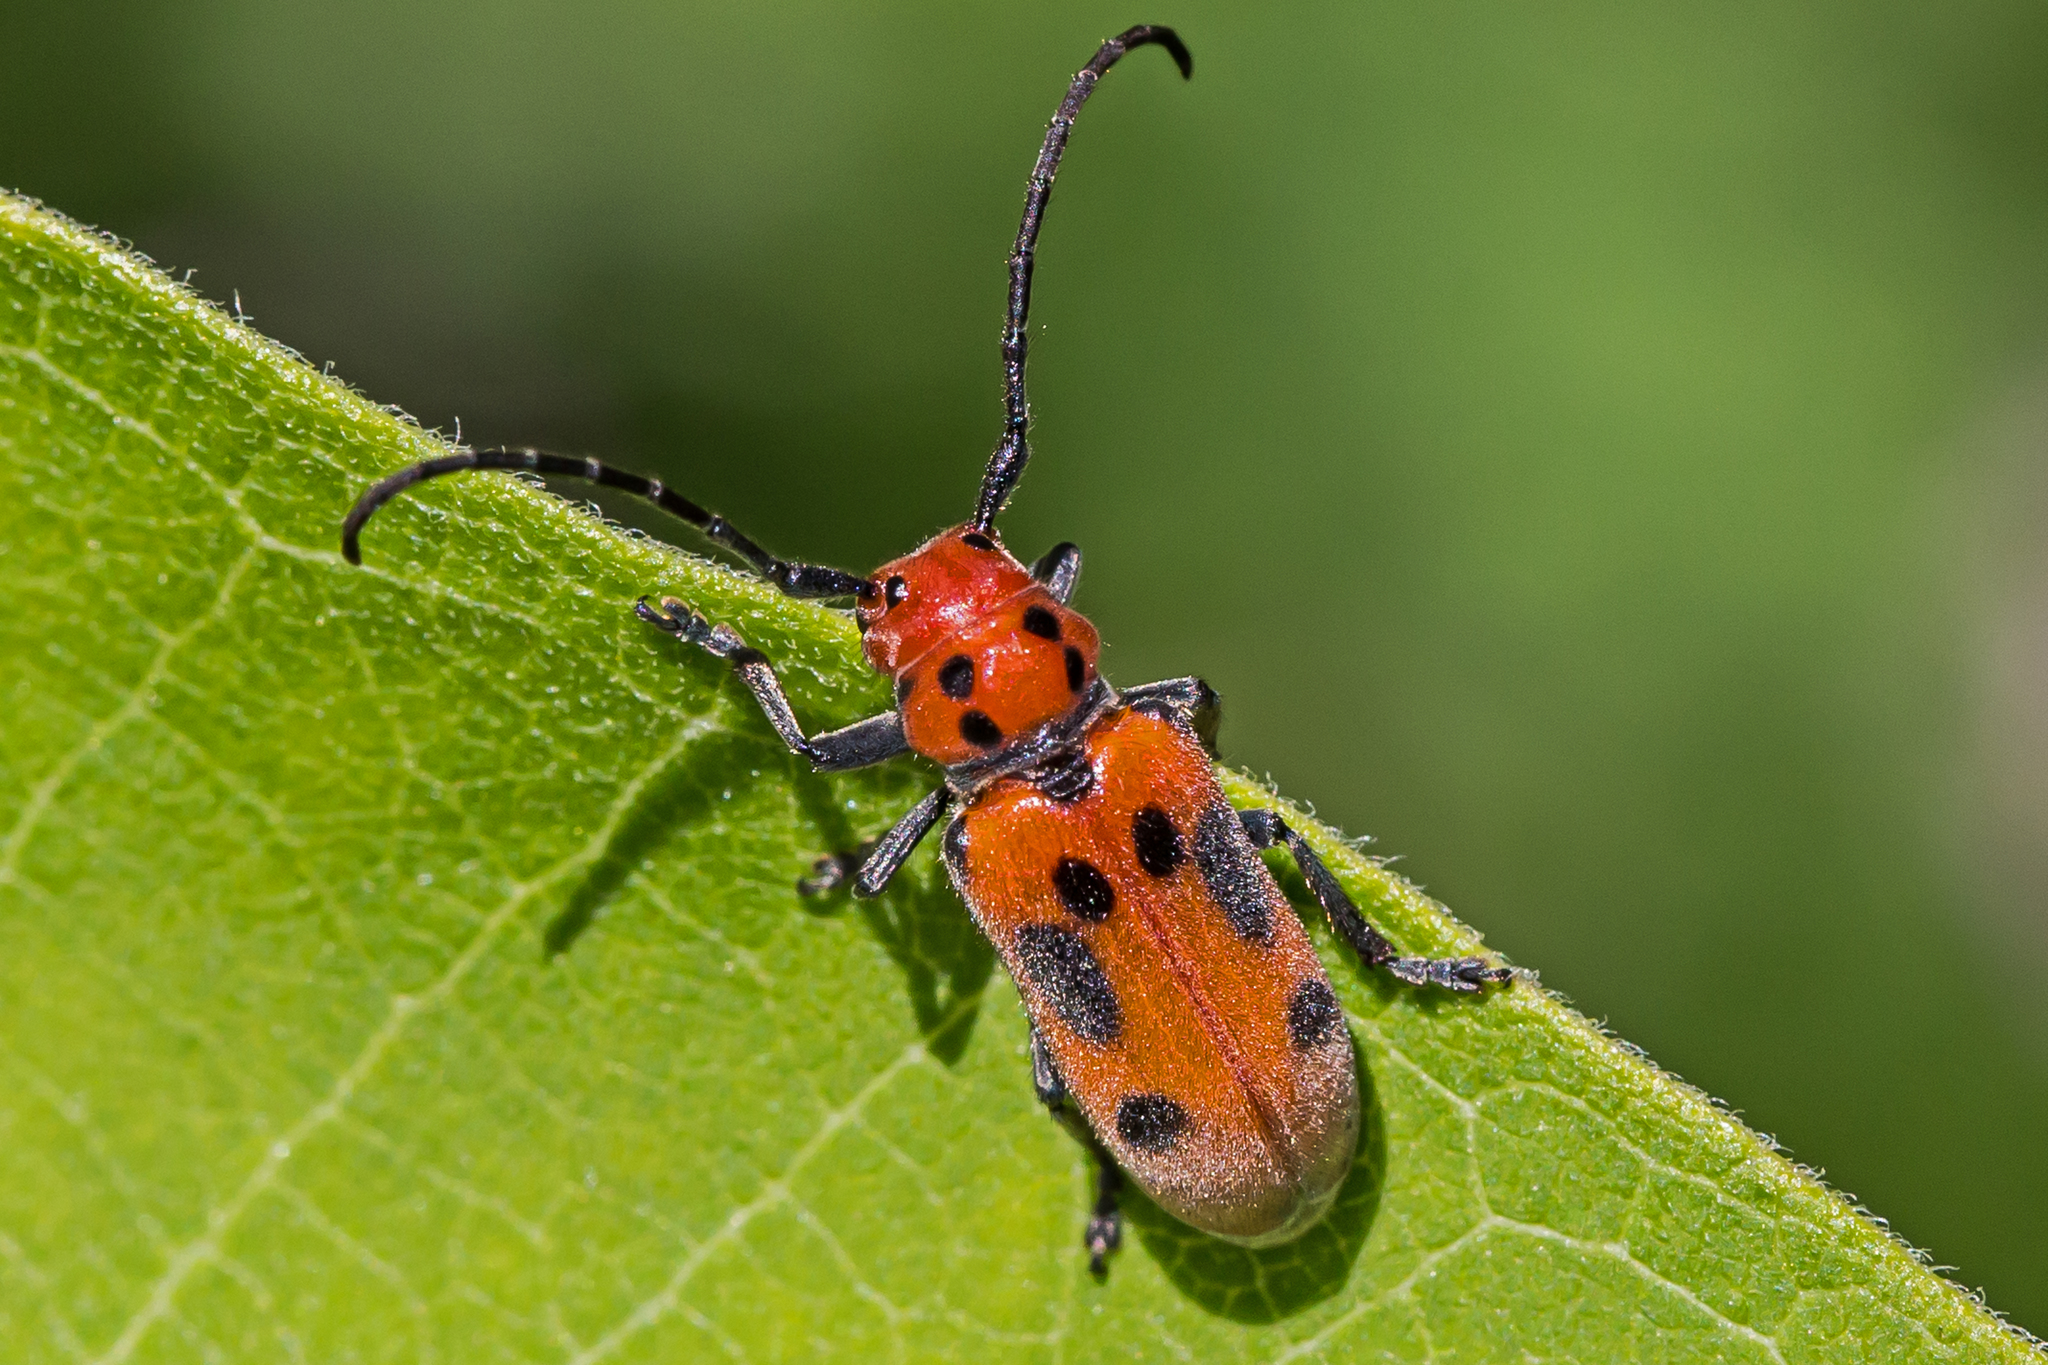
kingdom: Animalia
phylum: Arthropoda
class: Insecta
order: Coleoptera
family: Cerambycidae
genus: Tetraopes
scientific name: Tetraopes tetrophthalmus
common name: Red milkweed beetle
